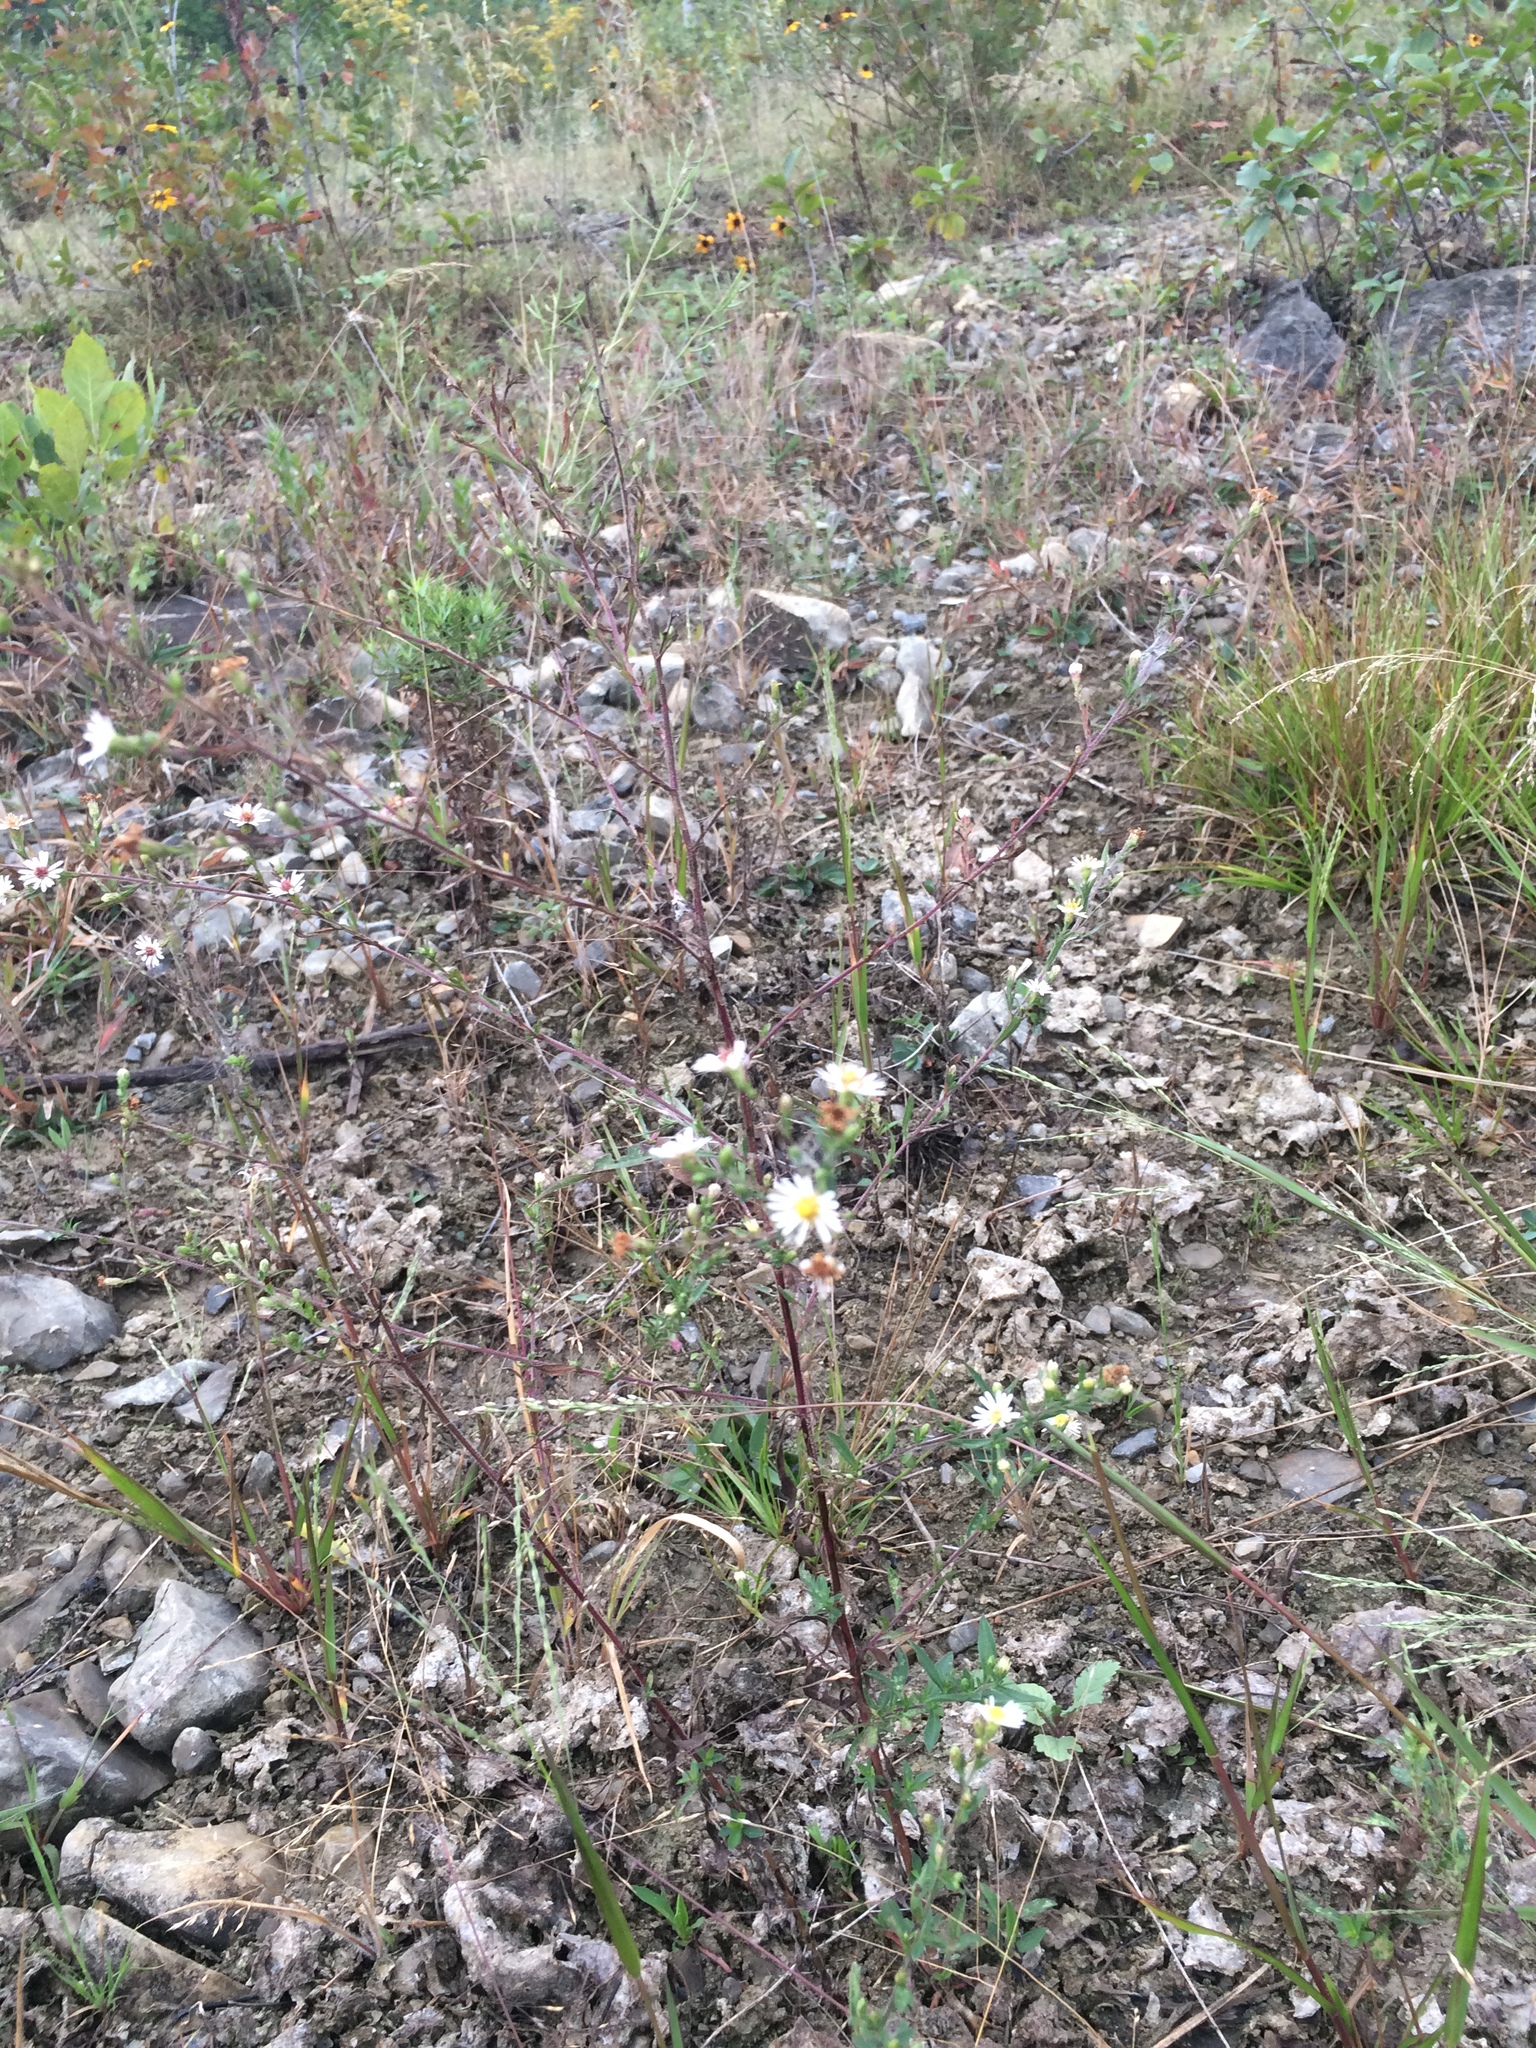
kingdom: Plantae
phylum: Tracheophyta
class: Magnoliopsida
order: Asterales
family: Asteraceae
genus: Symphyotrichum
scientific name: Symphyotrichum pilosum
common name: Awl aster
